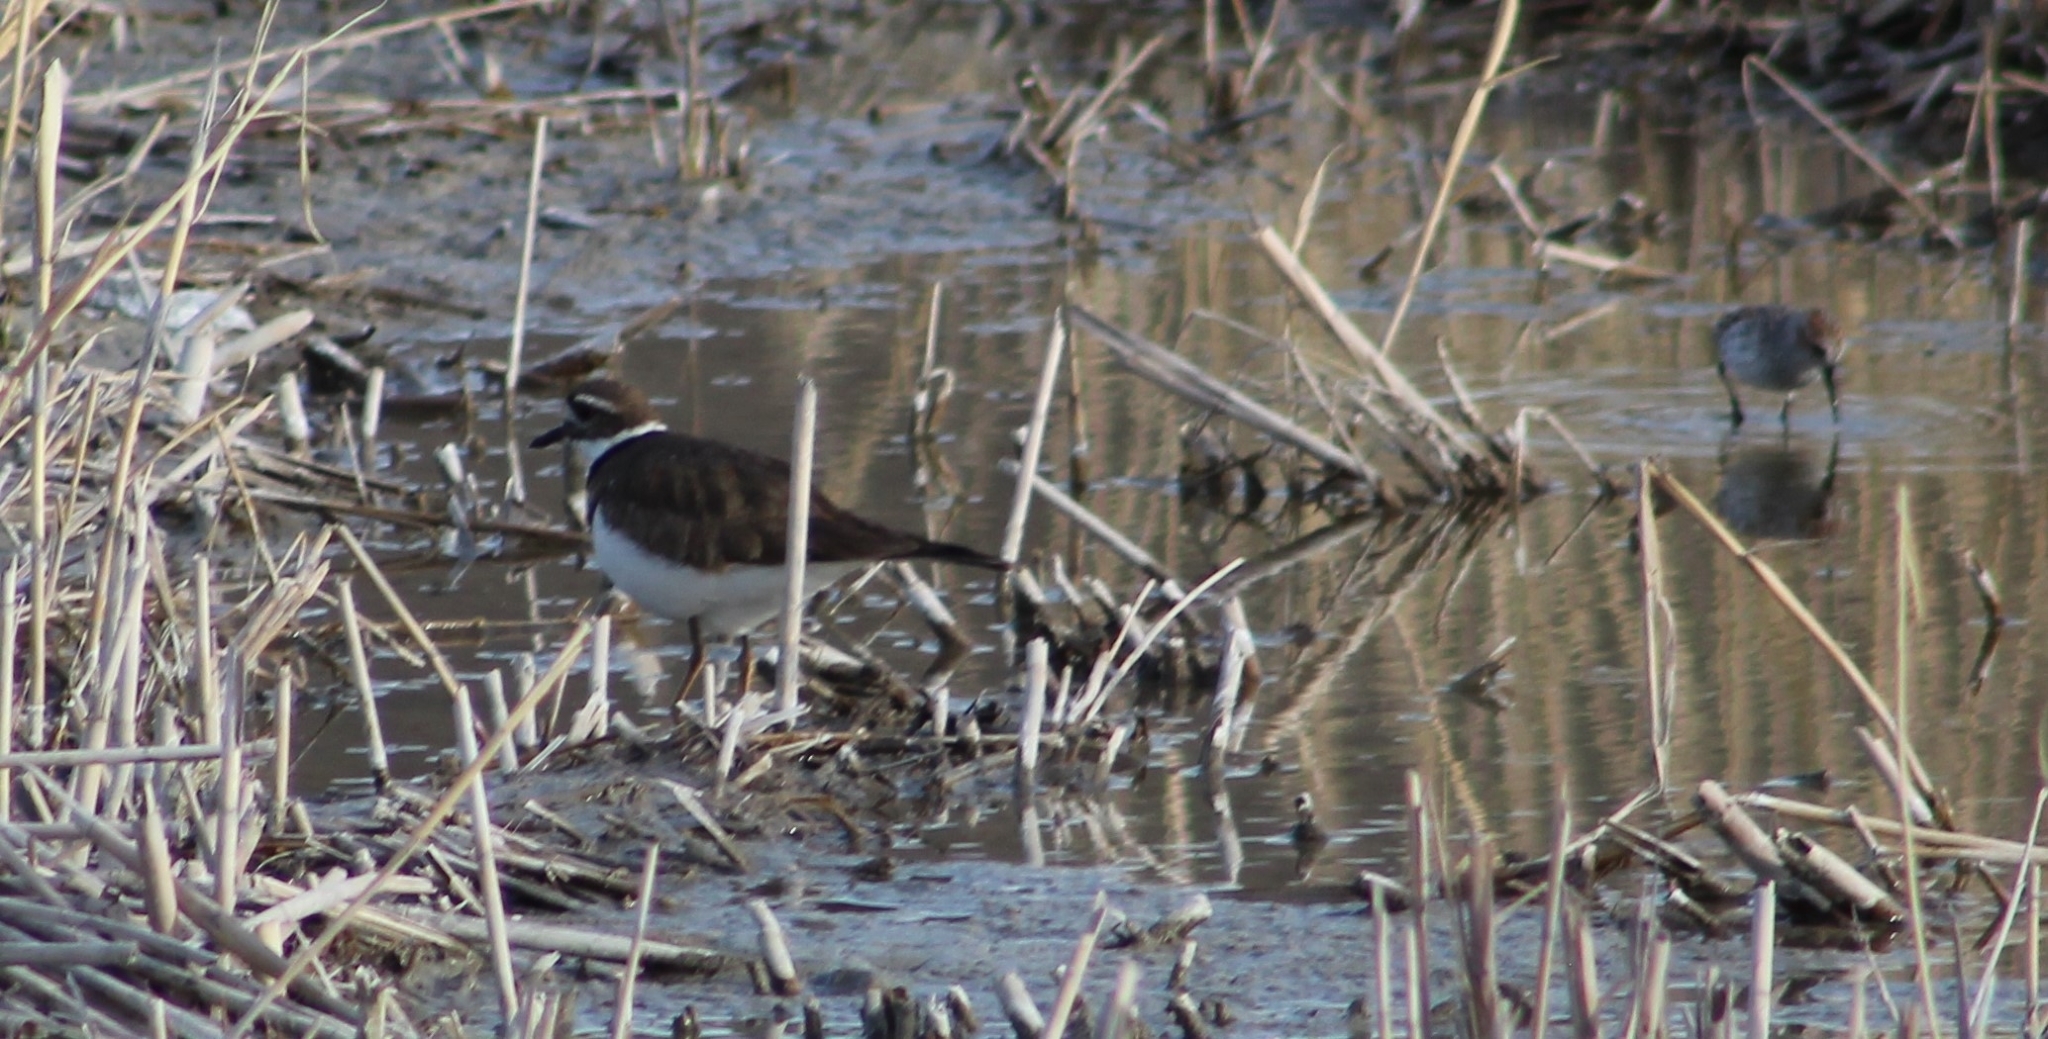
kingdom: Animalia
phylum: Chordata
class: Aves
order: Charadriiformes
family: Charadriidae
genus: Charadrius
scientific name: Charadrius vociferus
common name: Killdeer
